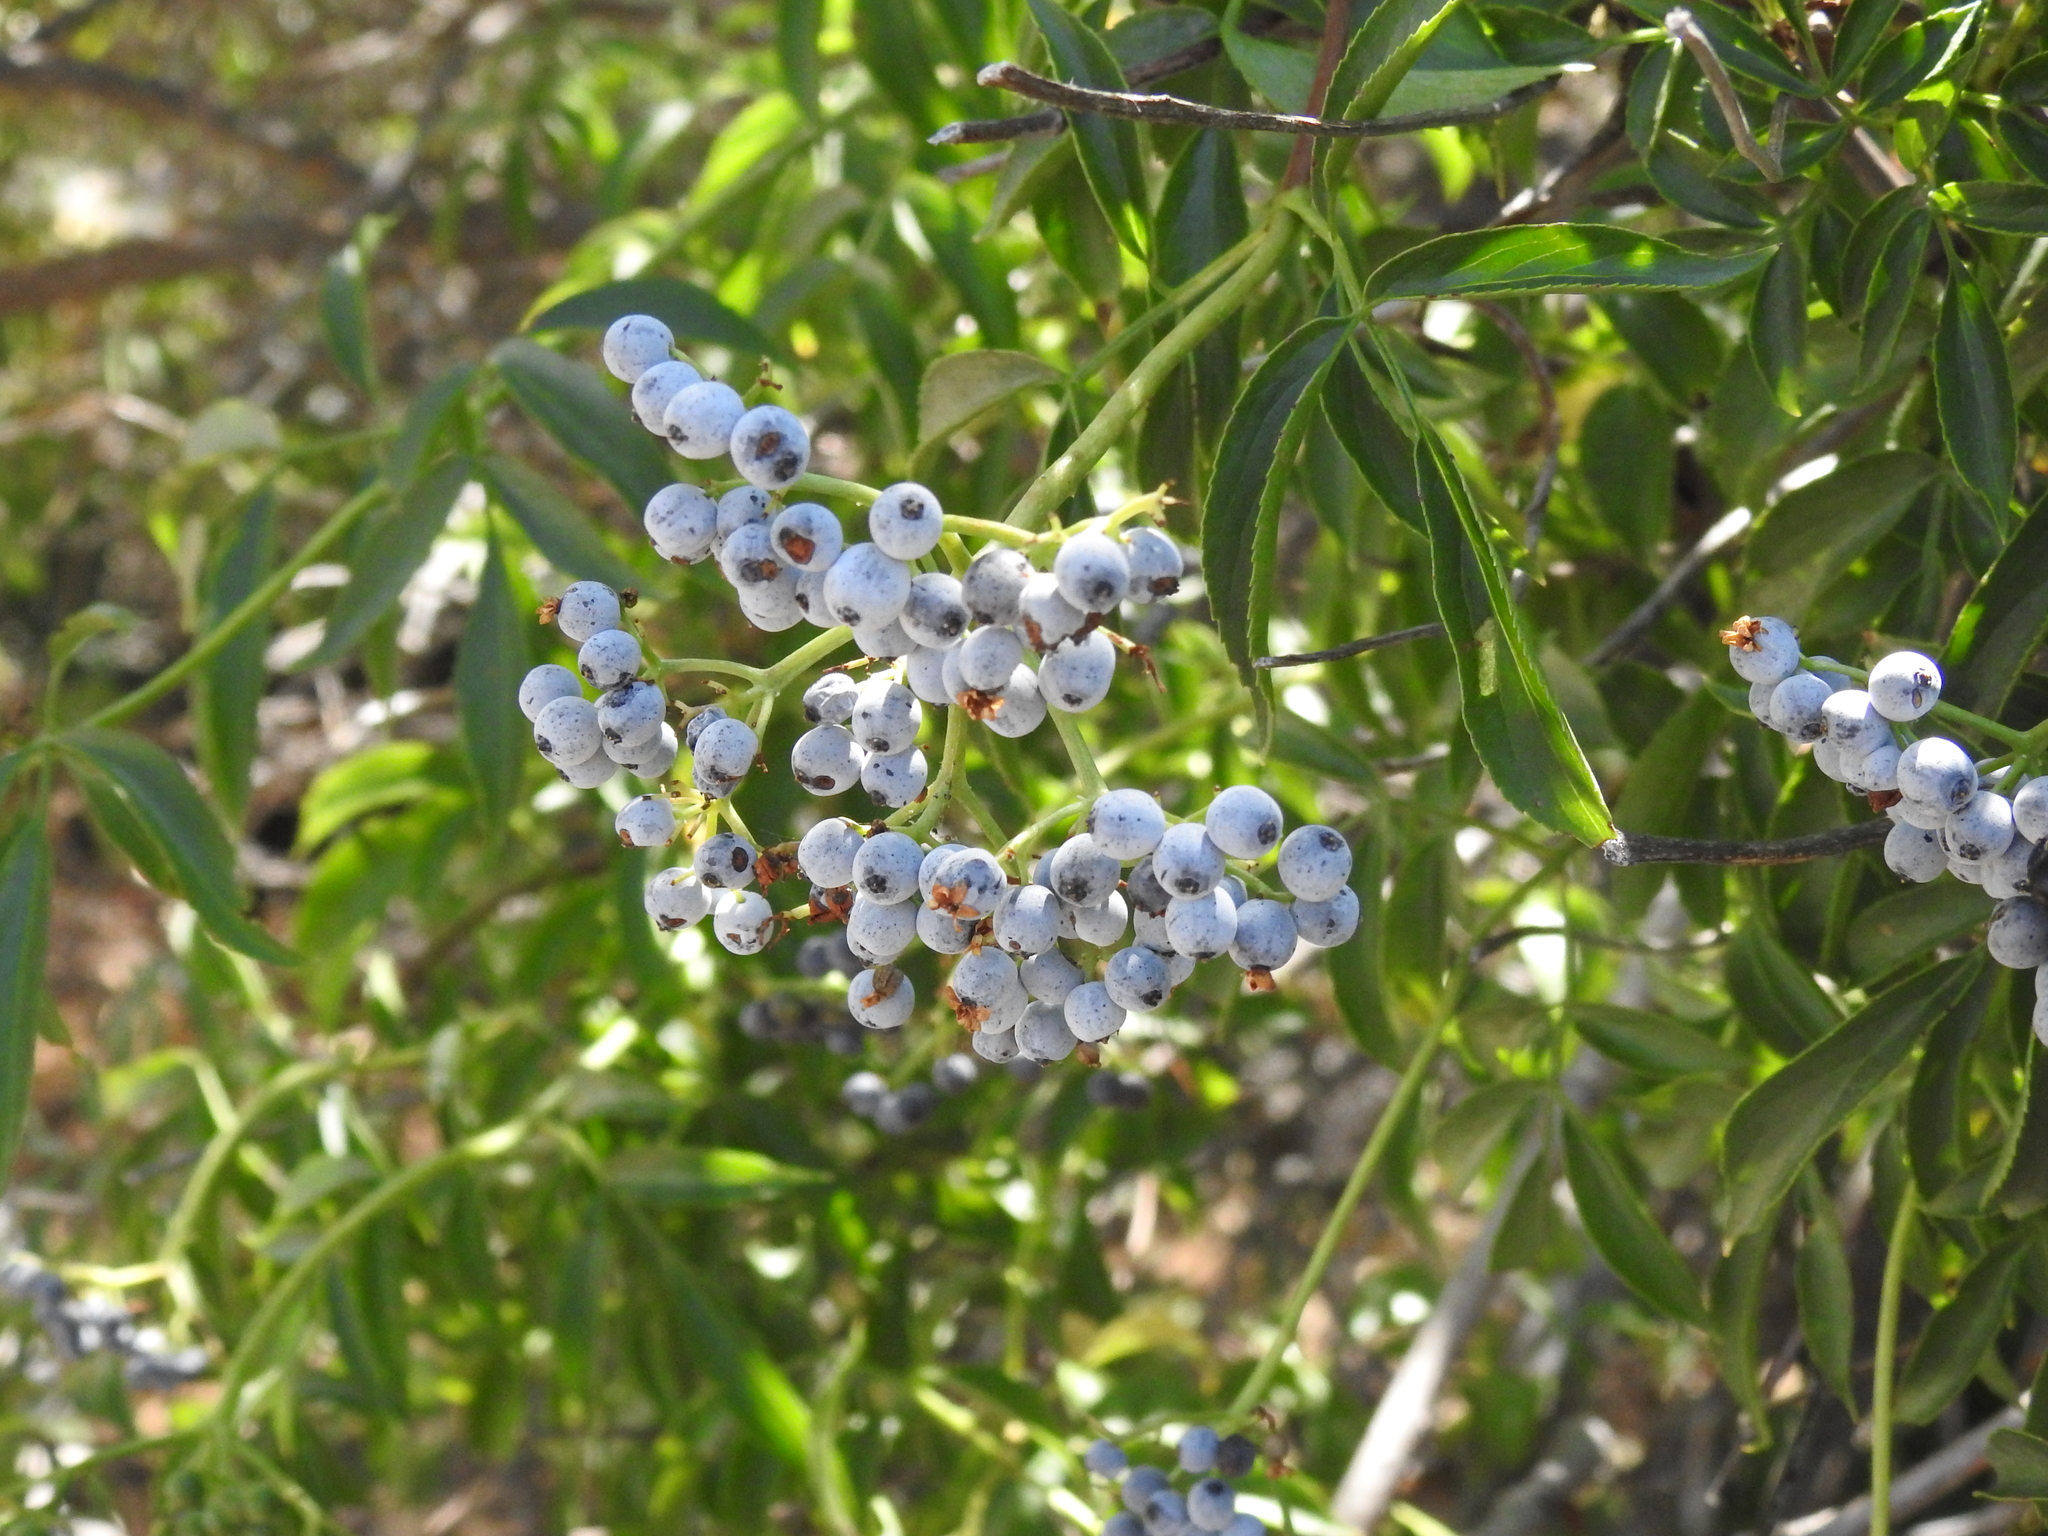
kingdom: Plantae
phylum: Tracheophyta
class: Magnoliopsida
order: Dipsacales
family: Viburnaceae
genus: Sambucus
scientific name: Sambucus cerulea
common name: Blue elder
